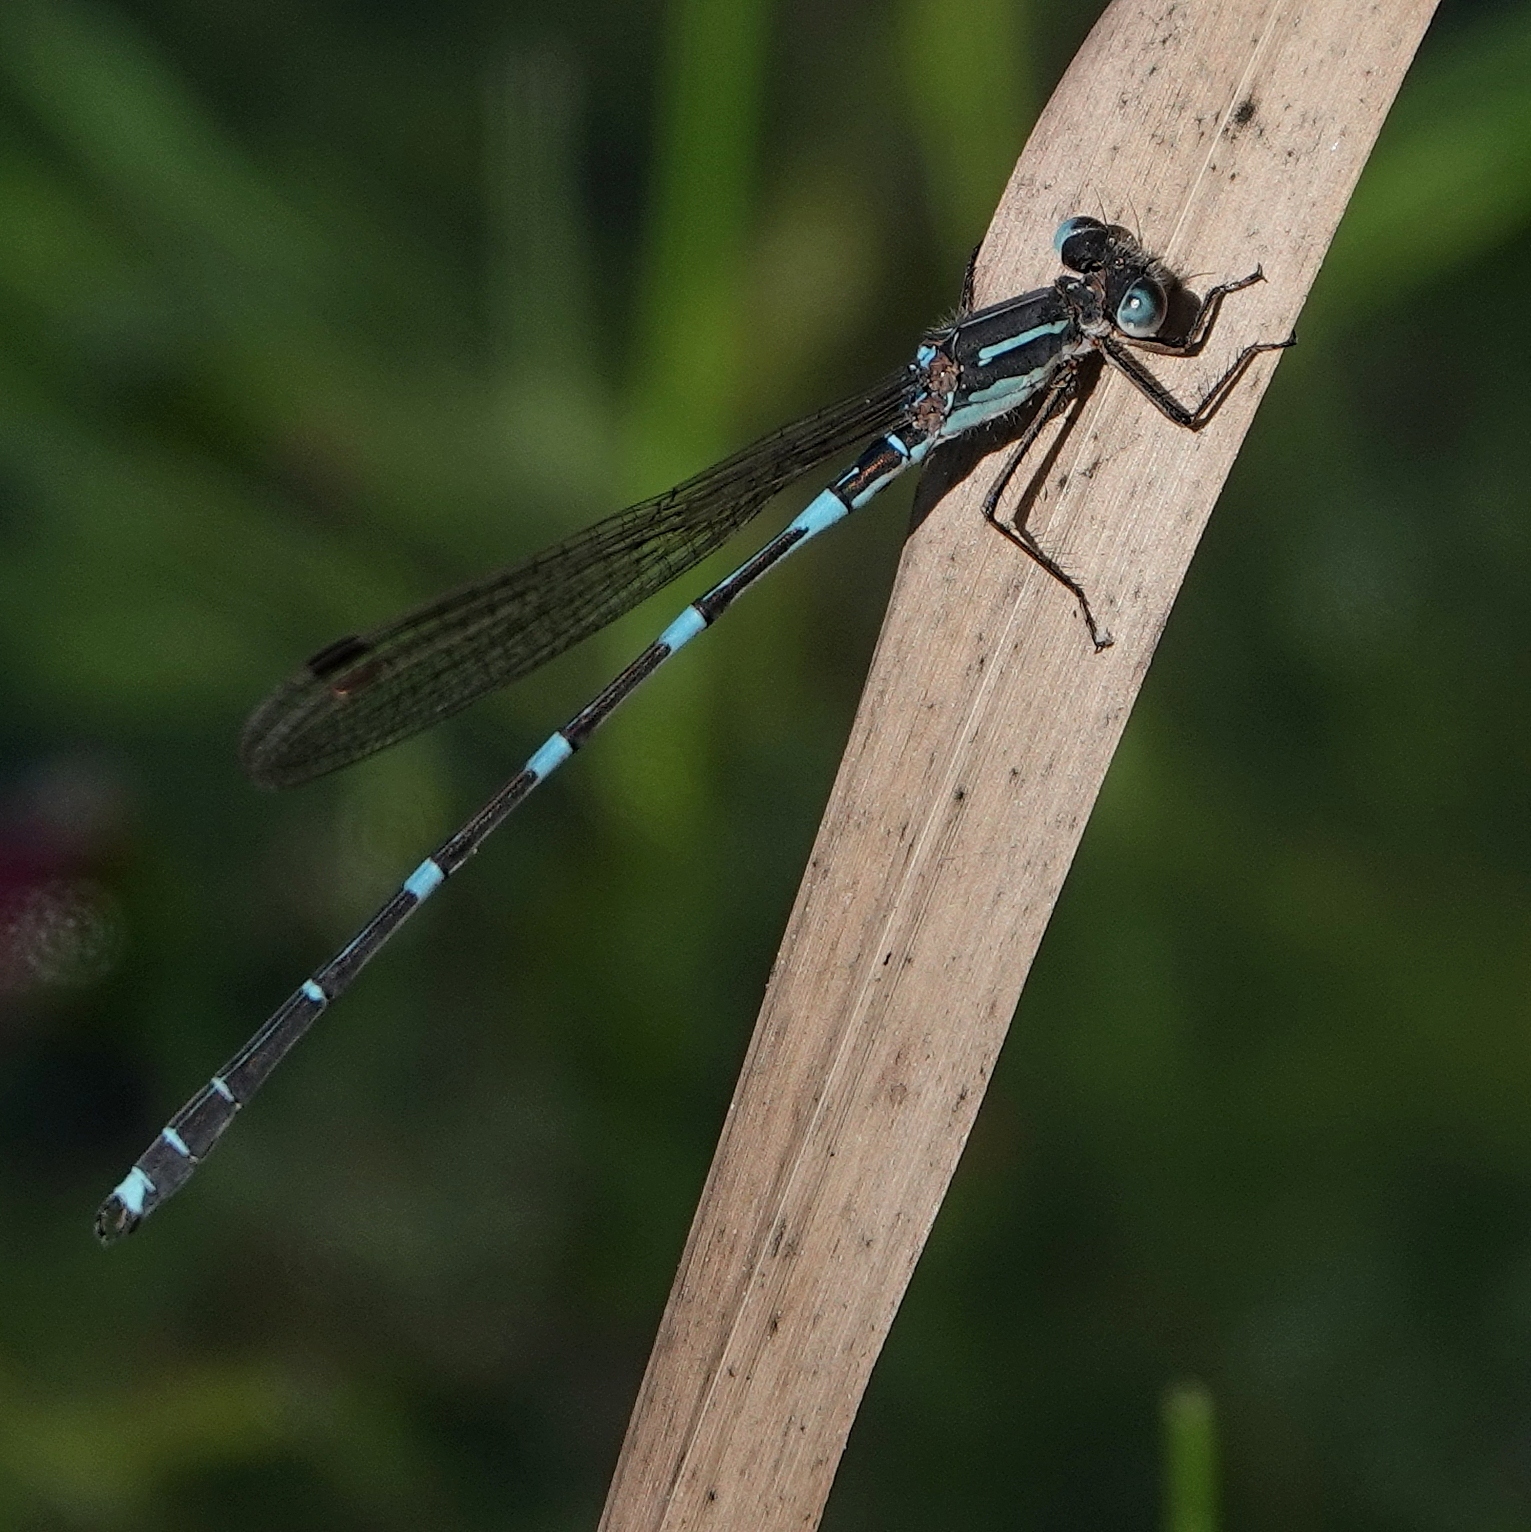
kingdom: Animalia
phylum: Arthropoda
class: Insecta
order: Odonata
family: Lestidae
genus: Austrolestes
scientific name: Austrolestes io
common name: Iota ringtail
